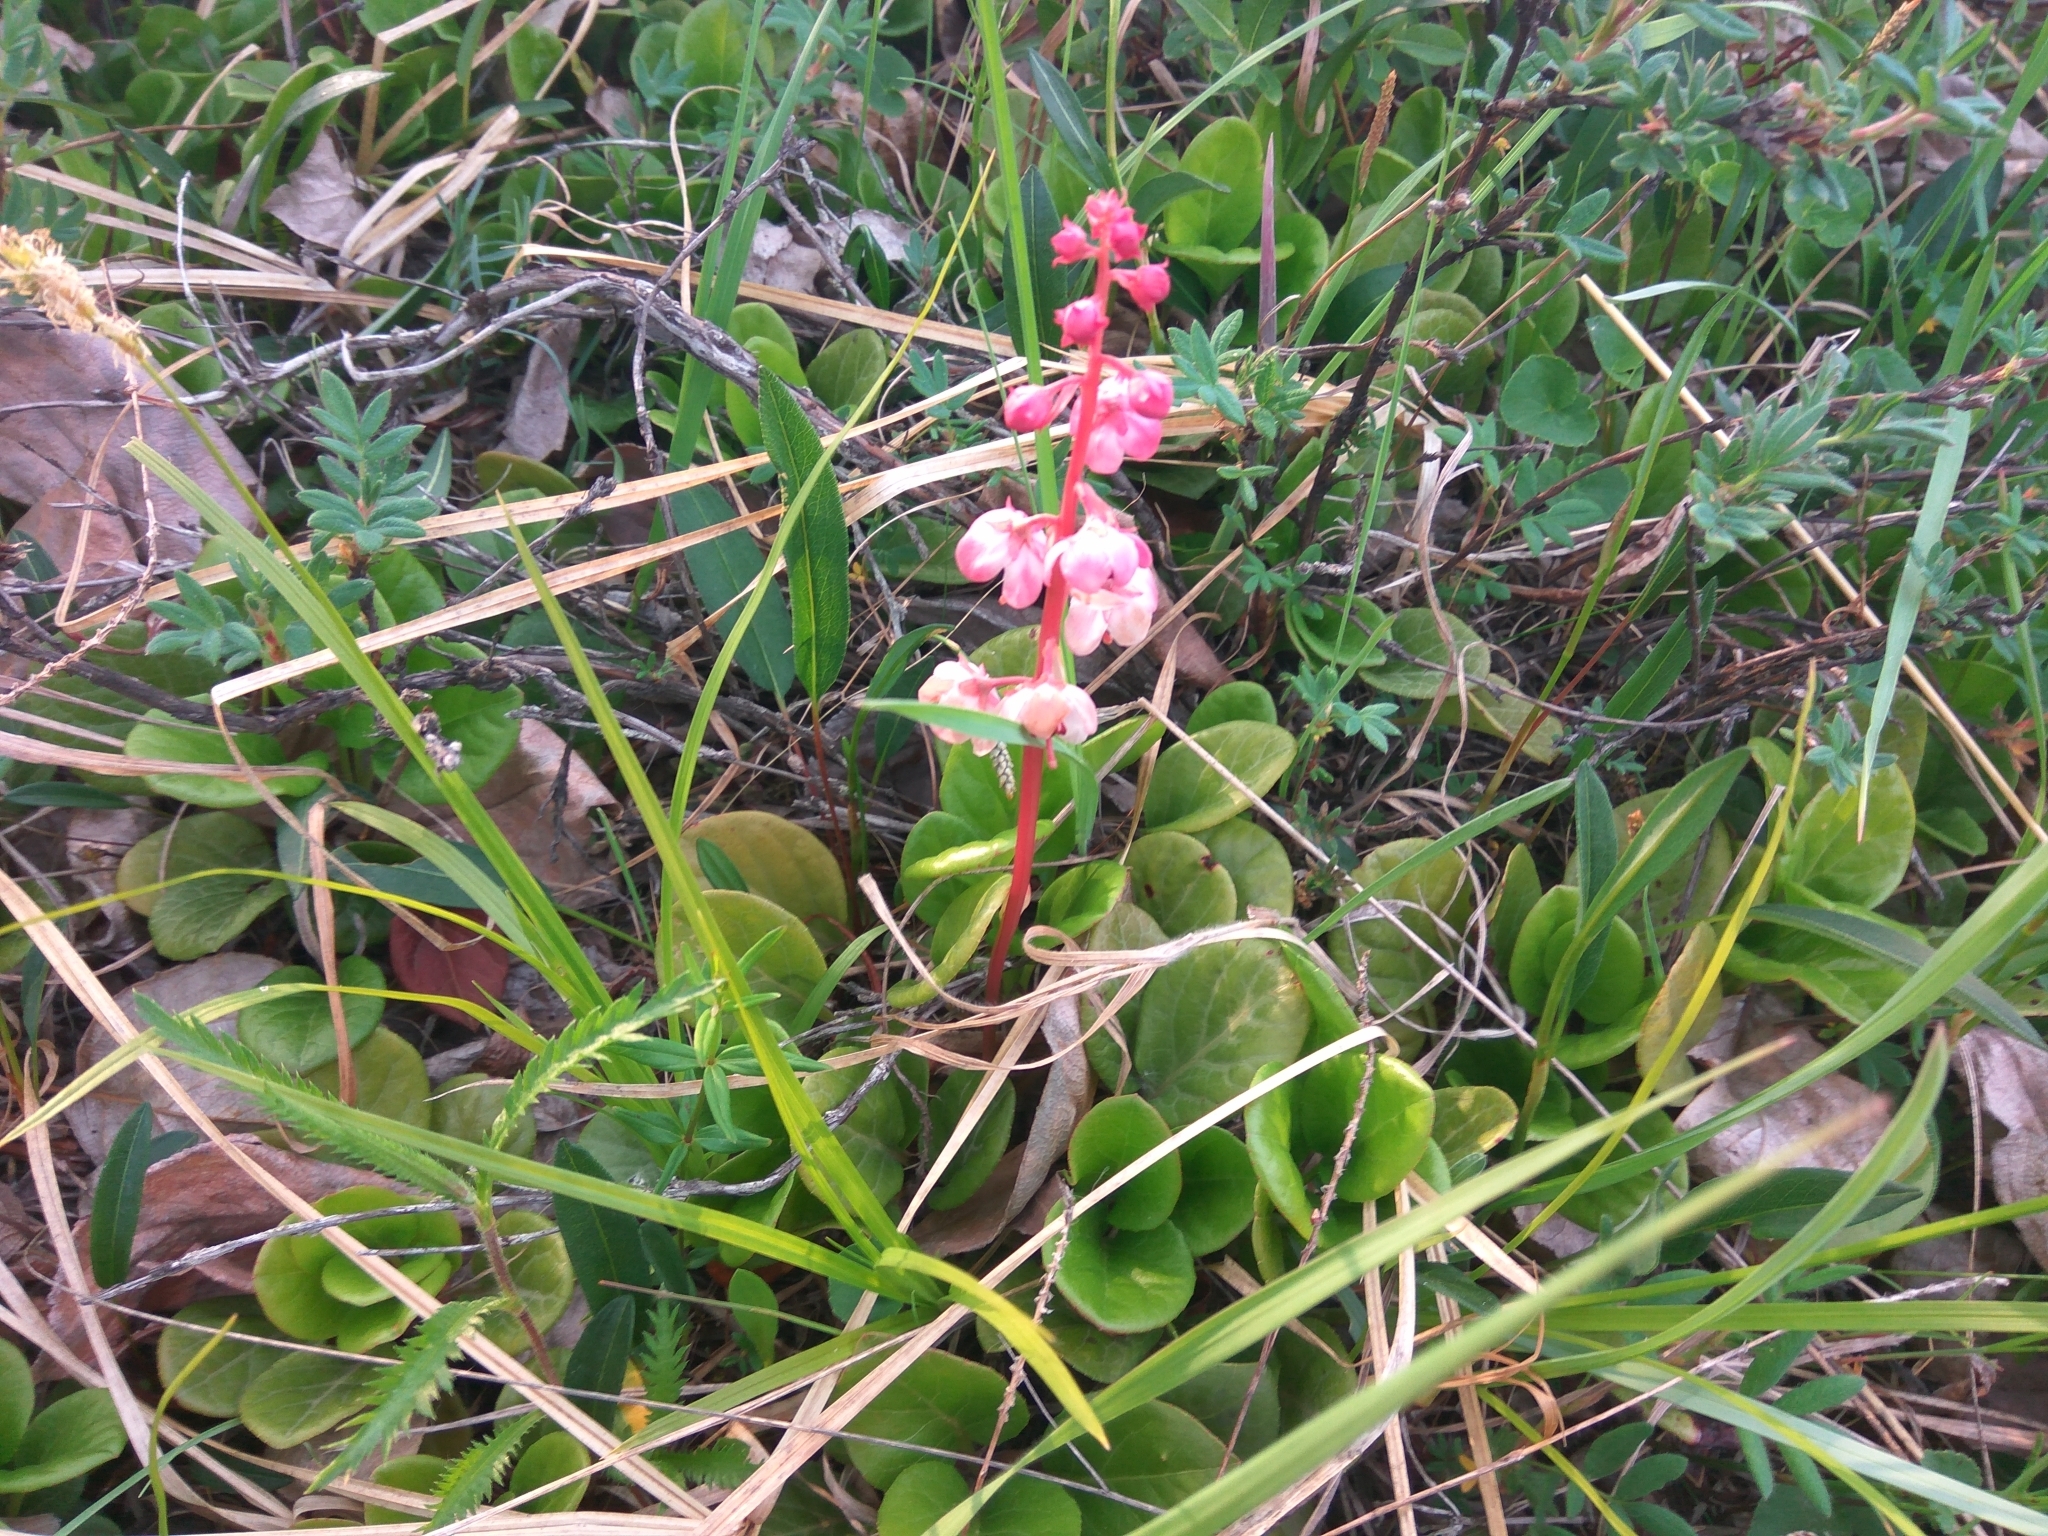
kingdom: Plantae
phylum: Tracheophyta
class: Magnoliopsida
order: Ericales
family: Ericaceae
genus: Pyrola
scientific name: Pyrola asarifolia
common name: Bog wintergreen
